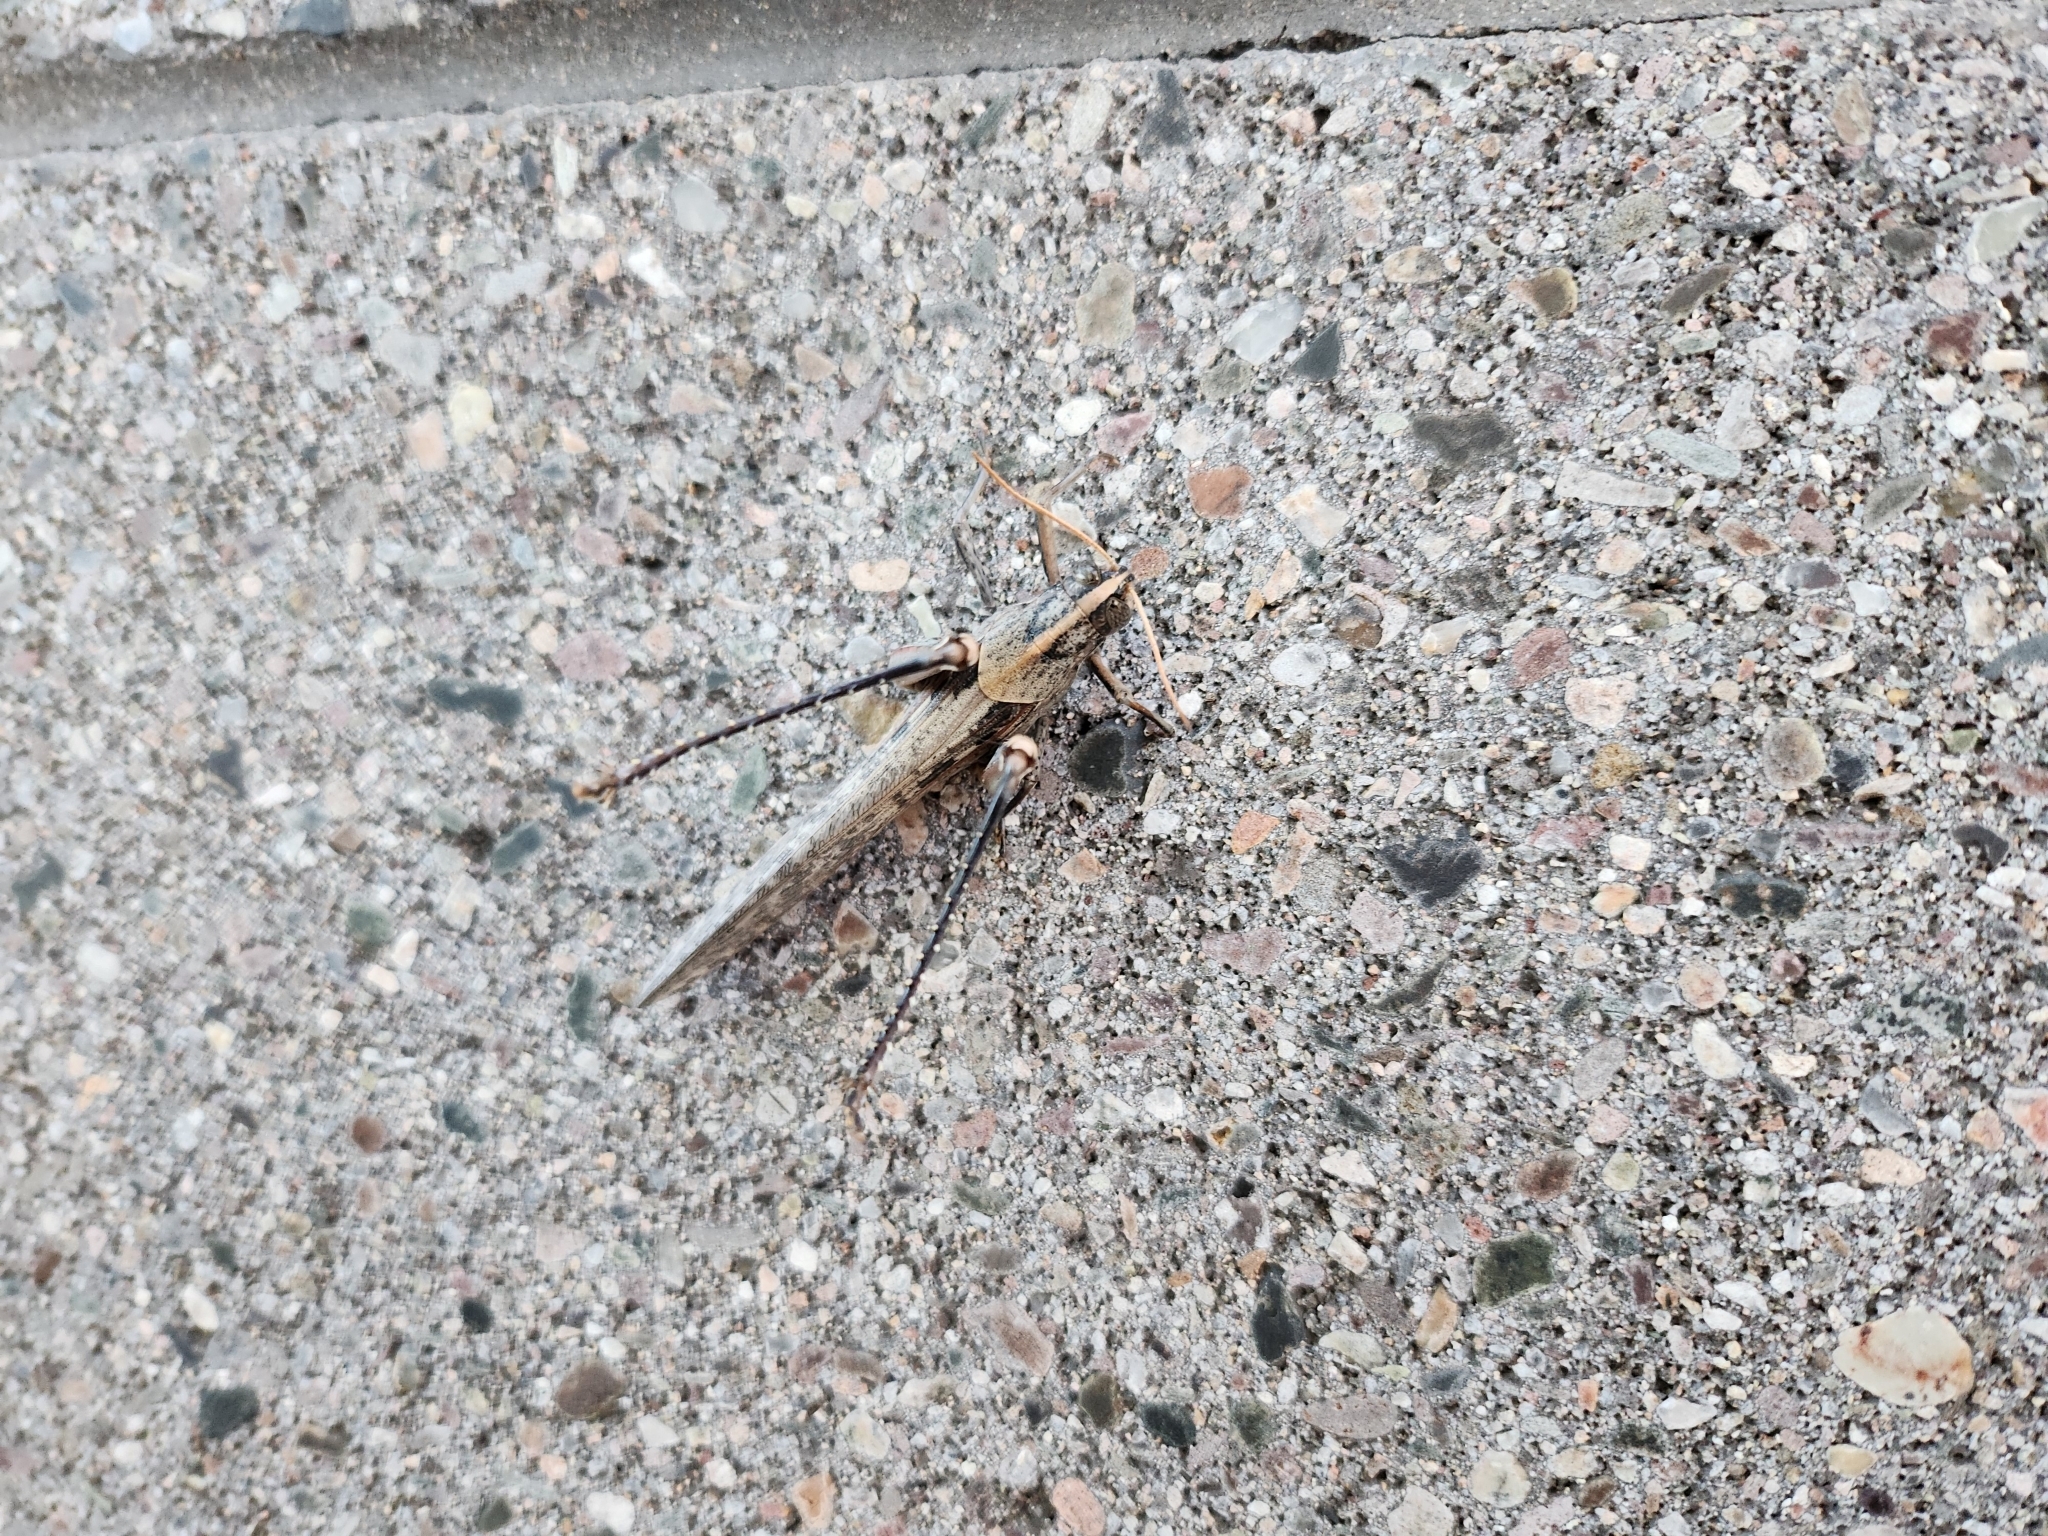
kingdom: Animalia
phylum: Arthropoda
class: Insecta
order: Orthoptera
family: Acrididae
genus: Schistocerca
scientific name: Schistocerca nitens
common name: Vagrant grasshopper
